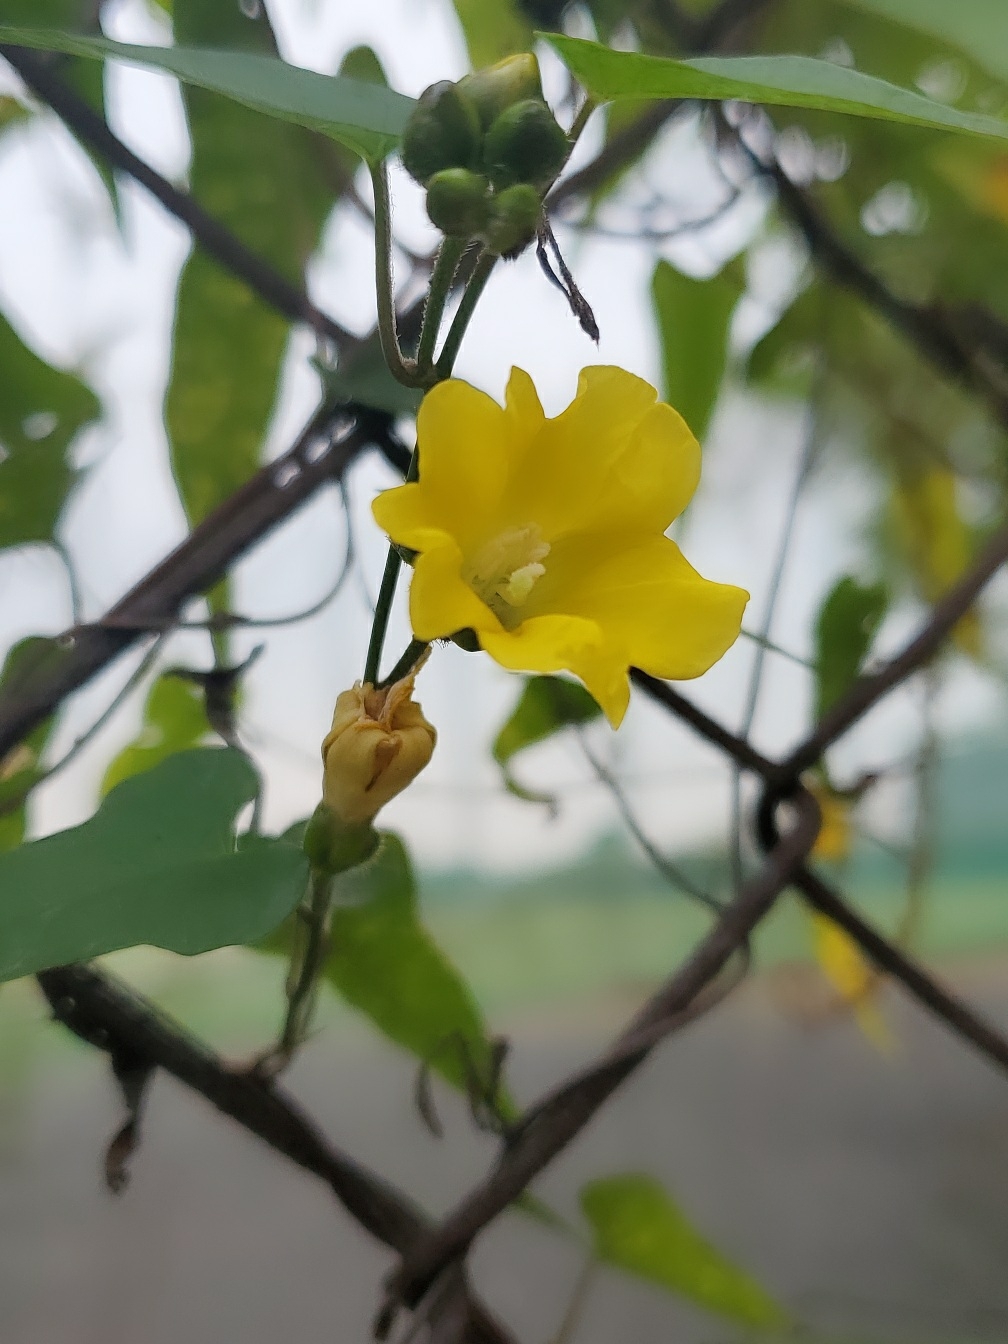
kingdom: Plantae
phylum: Tracheophyta
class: Magnoliopsida
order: Solanales
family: Convolvulaceae
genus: Merremia
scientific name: Merremia gemella
